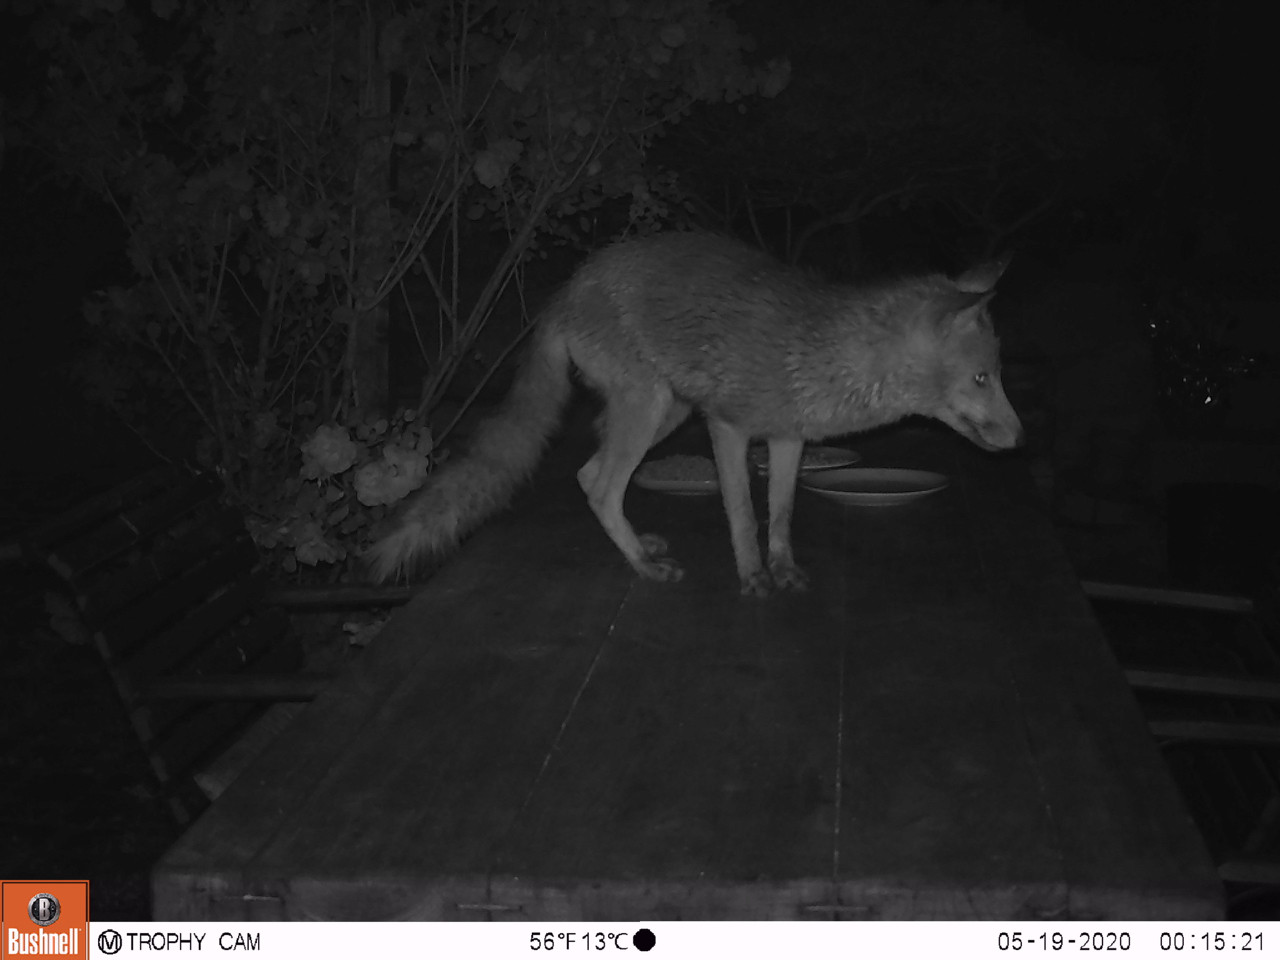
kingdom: Animalia
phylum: Chordata
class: Mammalia
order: Carnivora
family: Canidae
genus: Vulpes
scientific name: Vulpes vulpes
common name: Red fox
